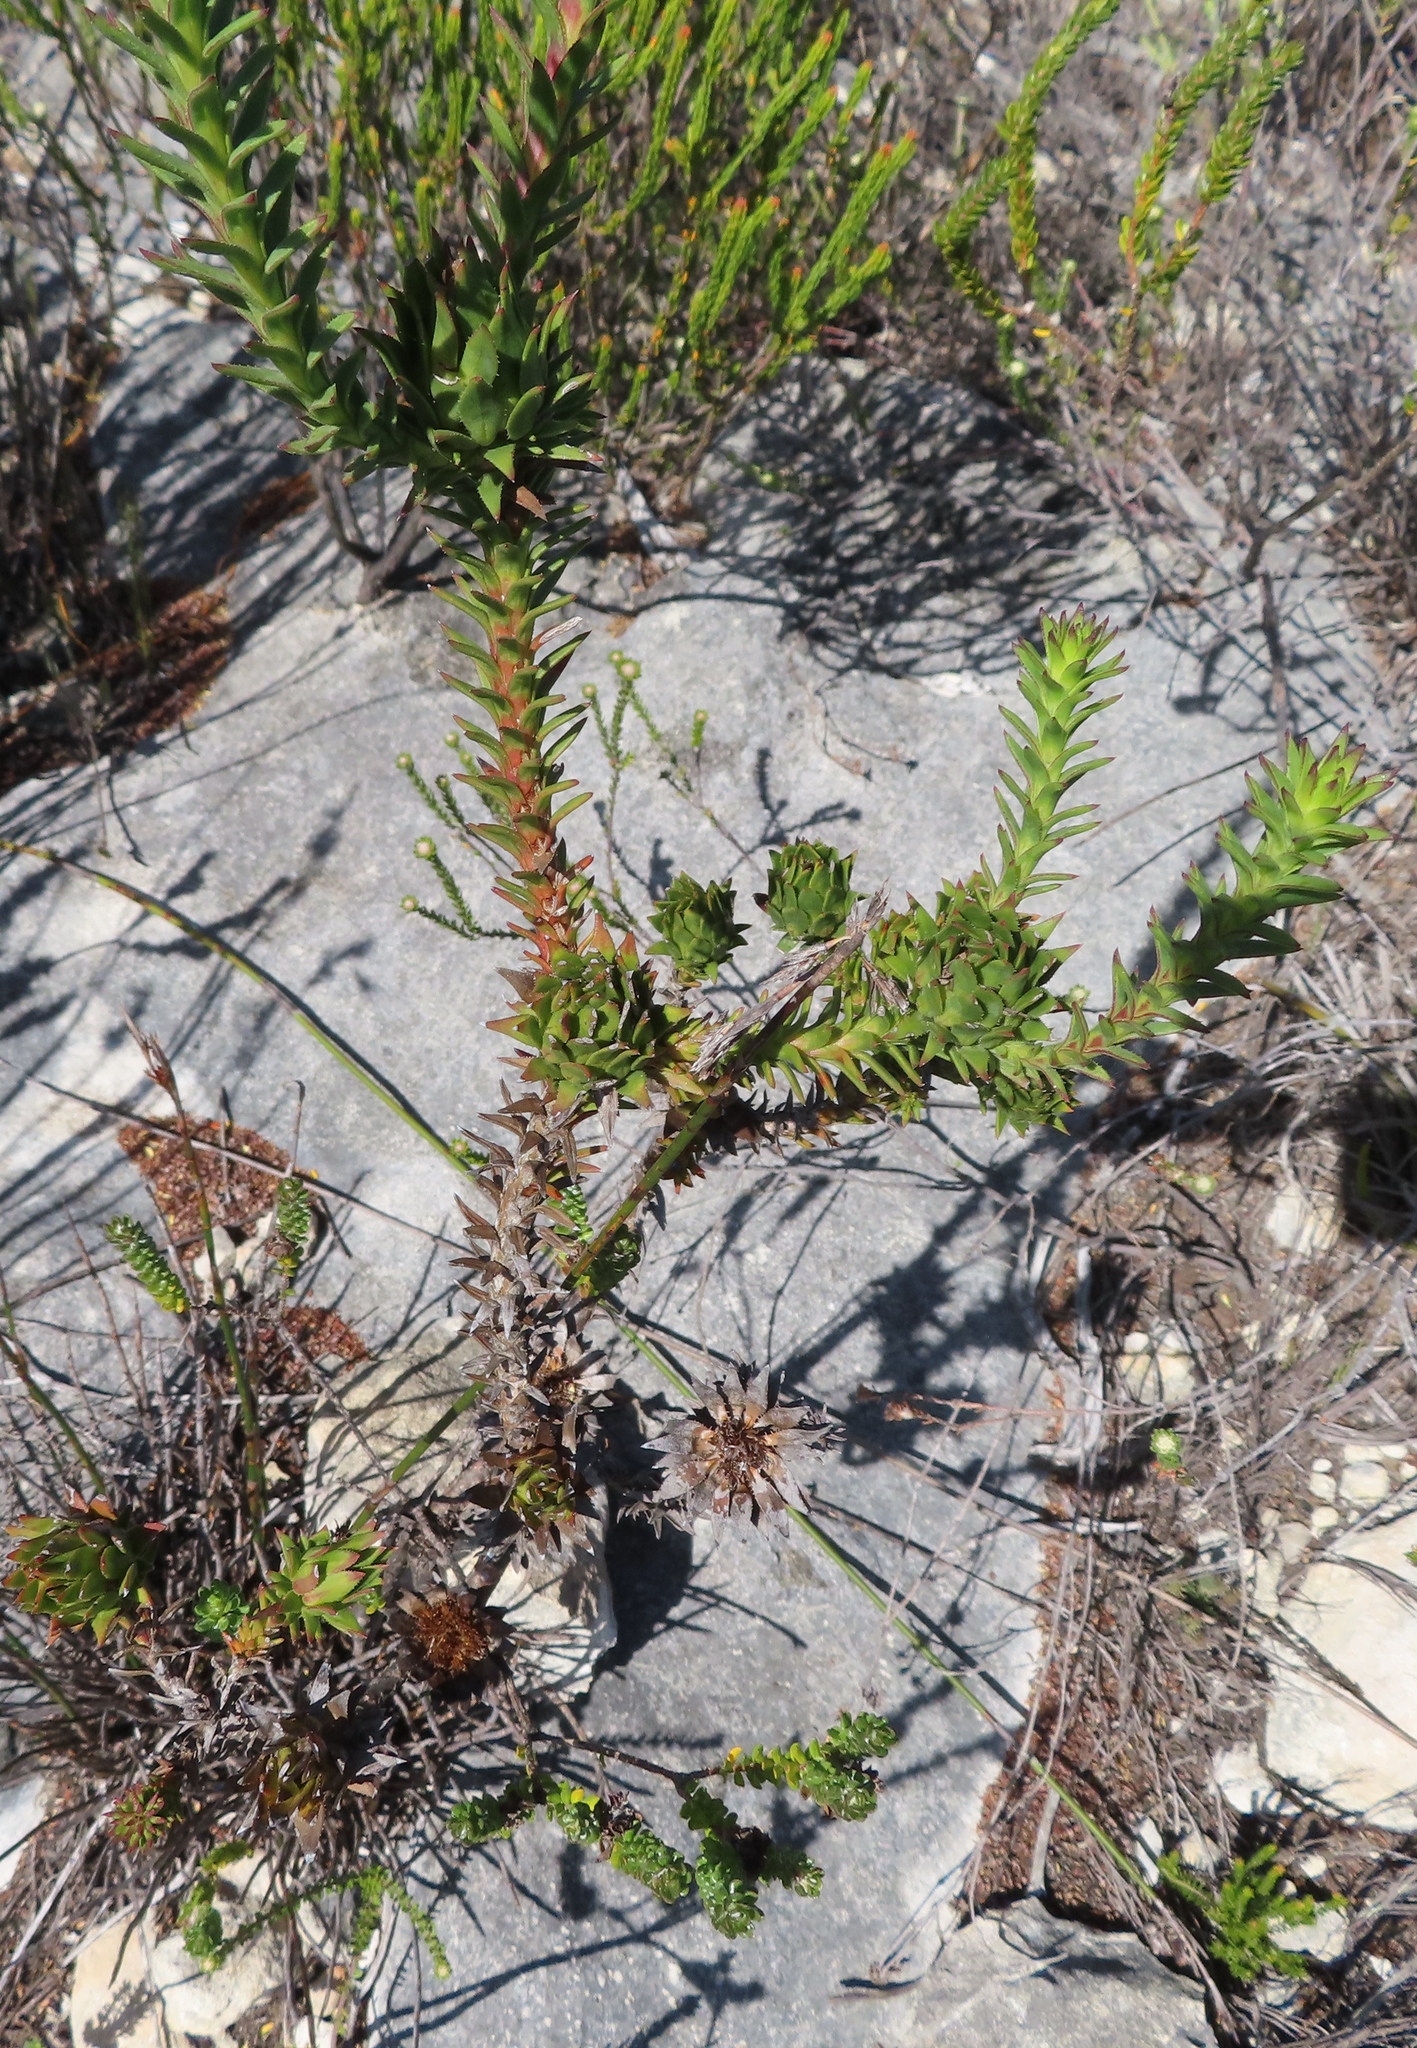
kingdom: Plantae
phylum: Tracheophyta
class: Magnoliopsida
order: Asterales
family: Asteraceae
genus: Oedera
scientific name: Oedera capensis
